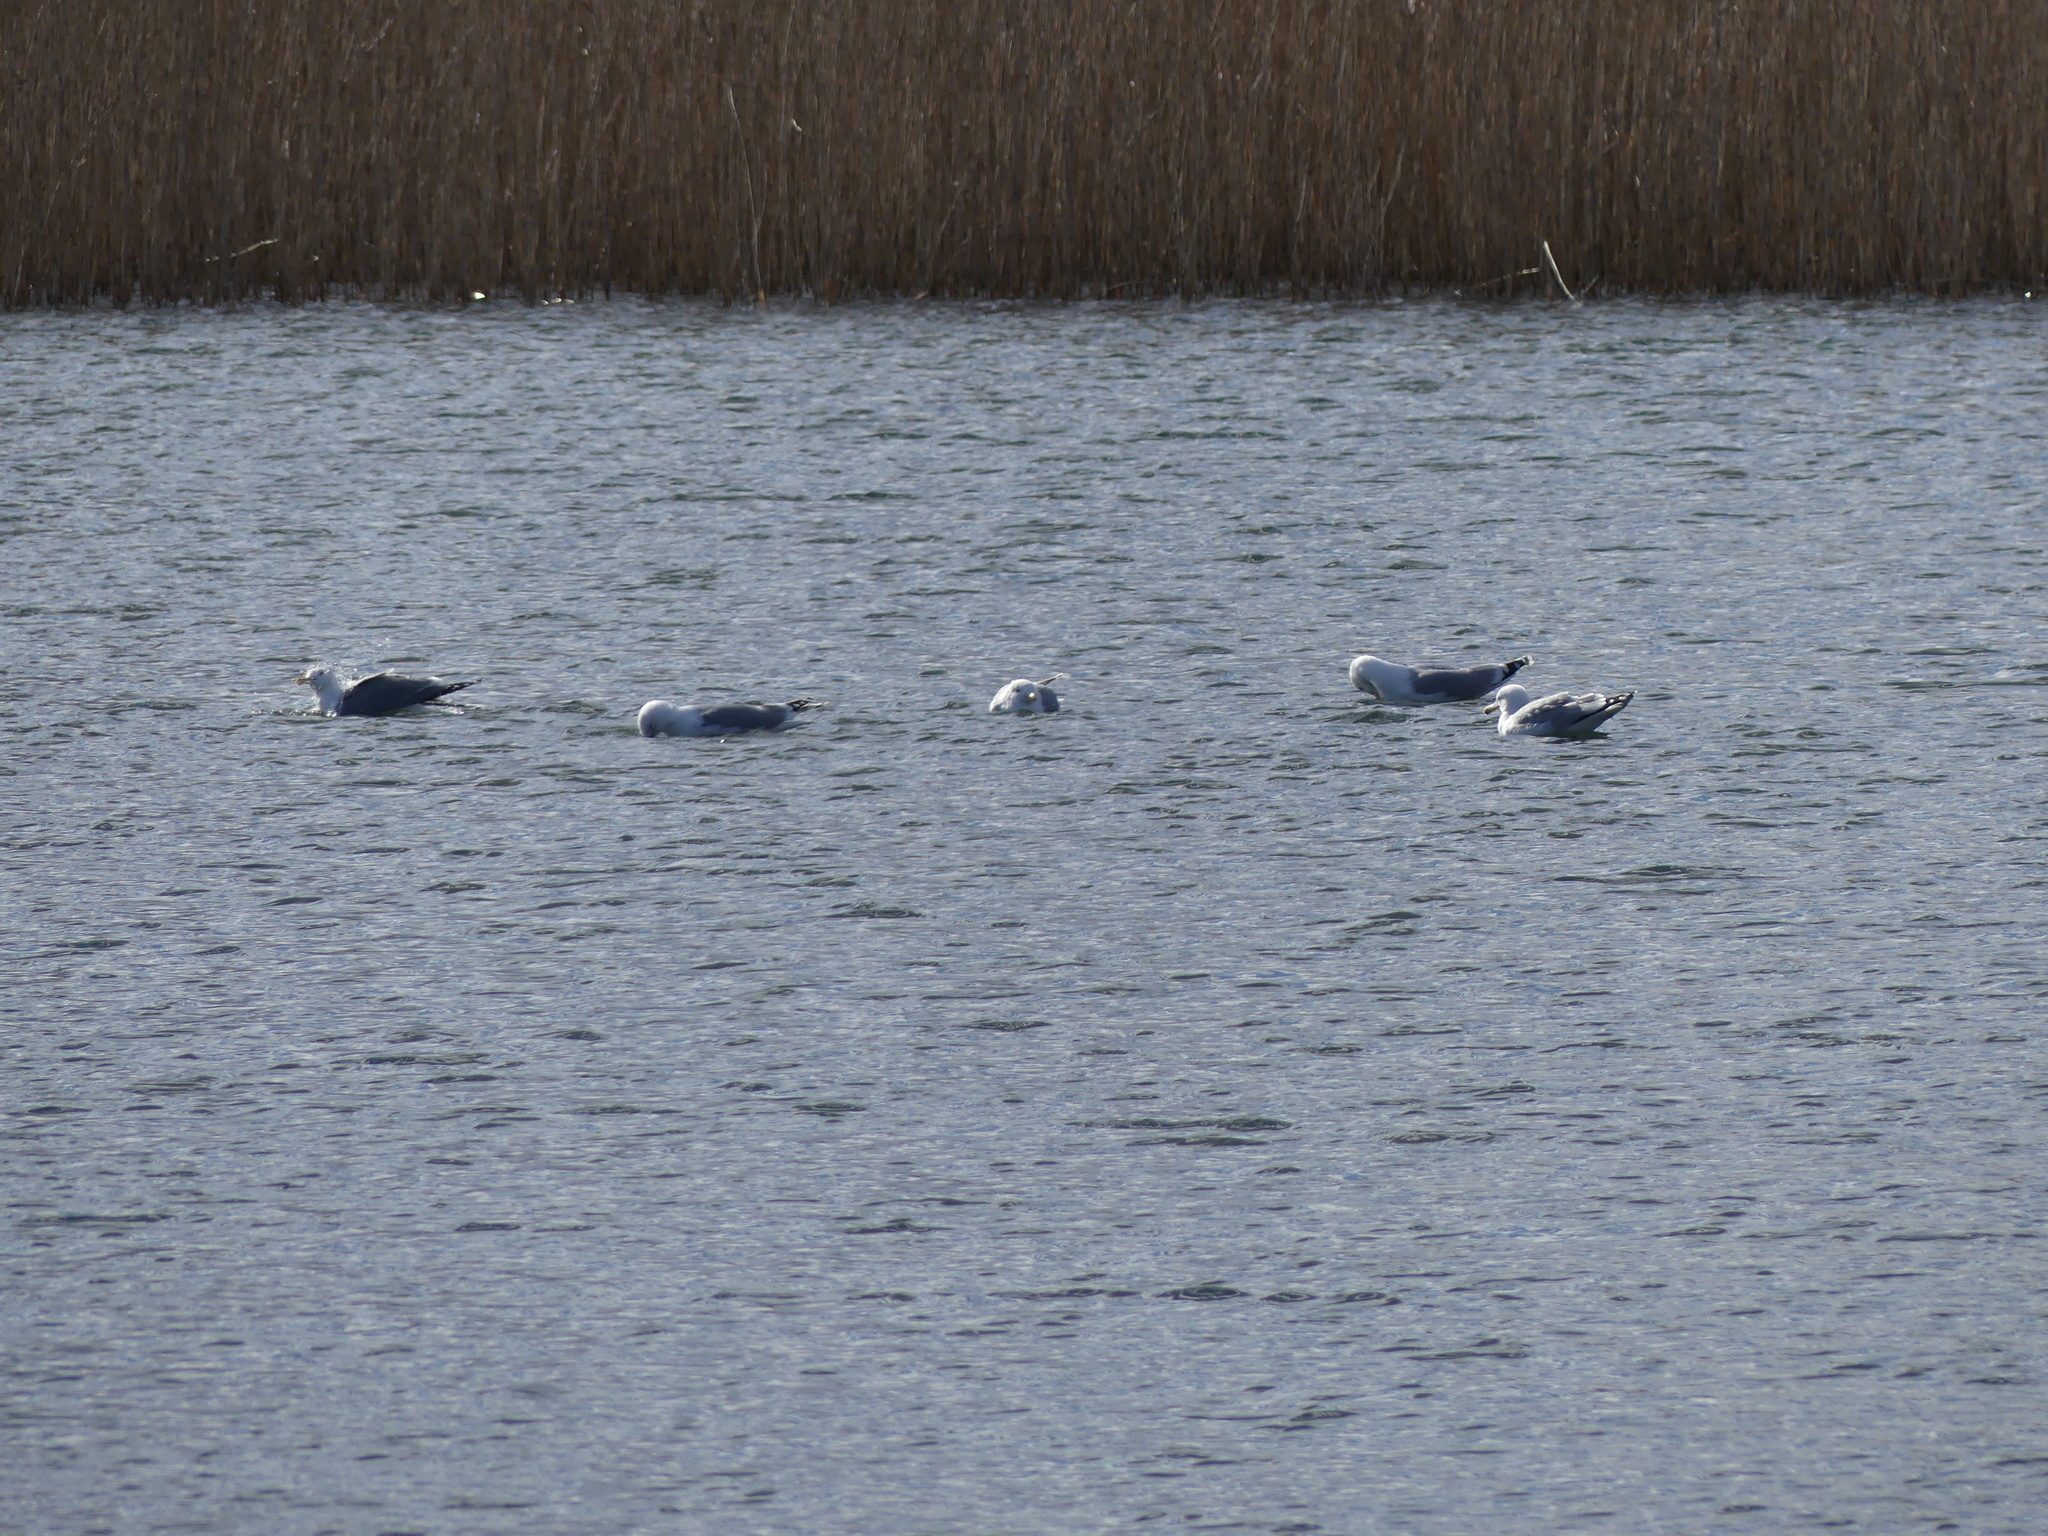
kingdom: Animalia
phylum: Chordata
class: Aves
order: Charadriiformes
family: Laridae
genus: Larus
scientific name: Larus argentatus
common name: Herring gull
